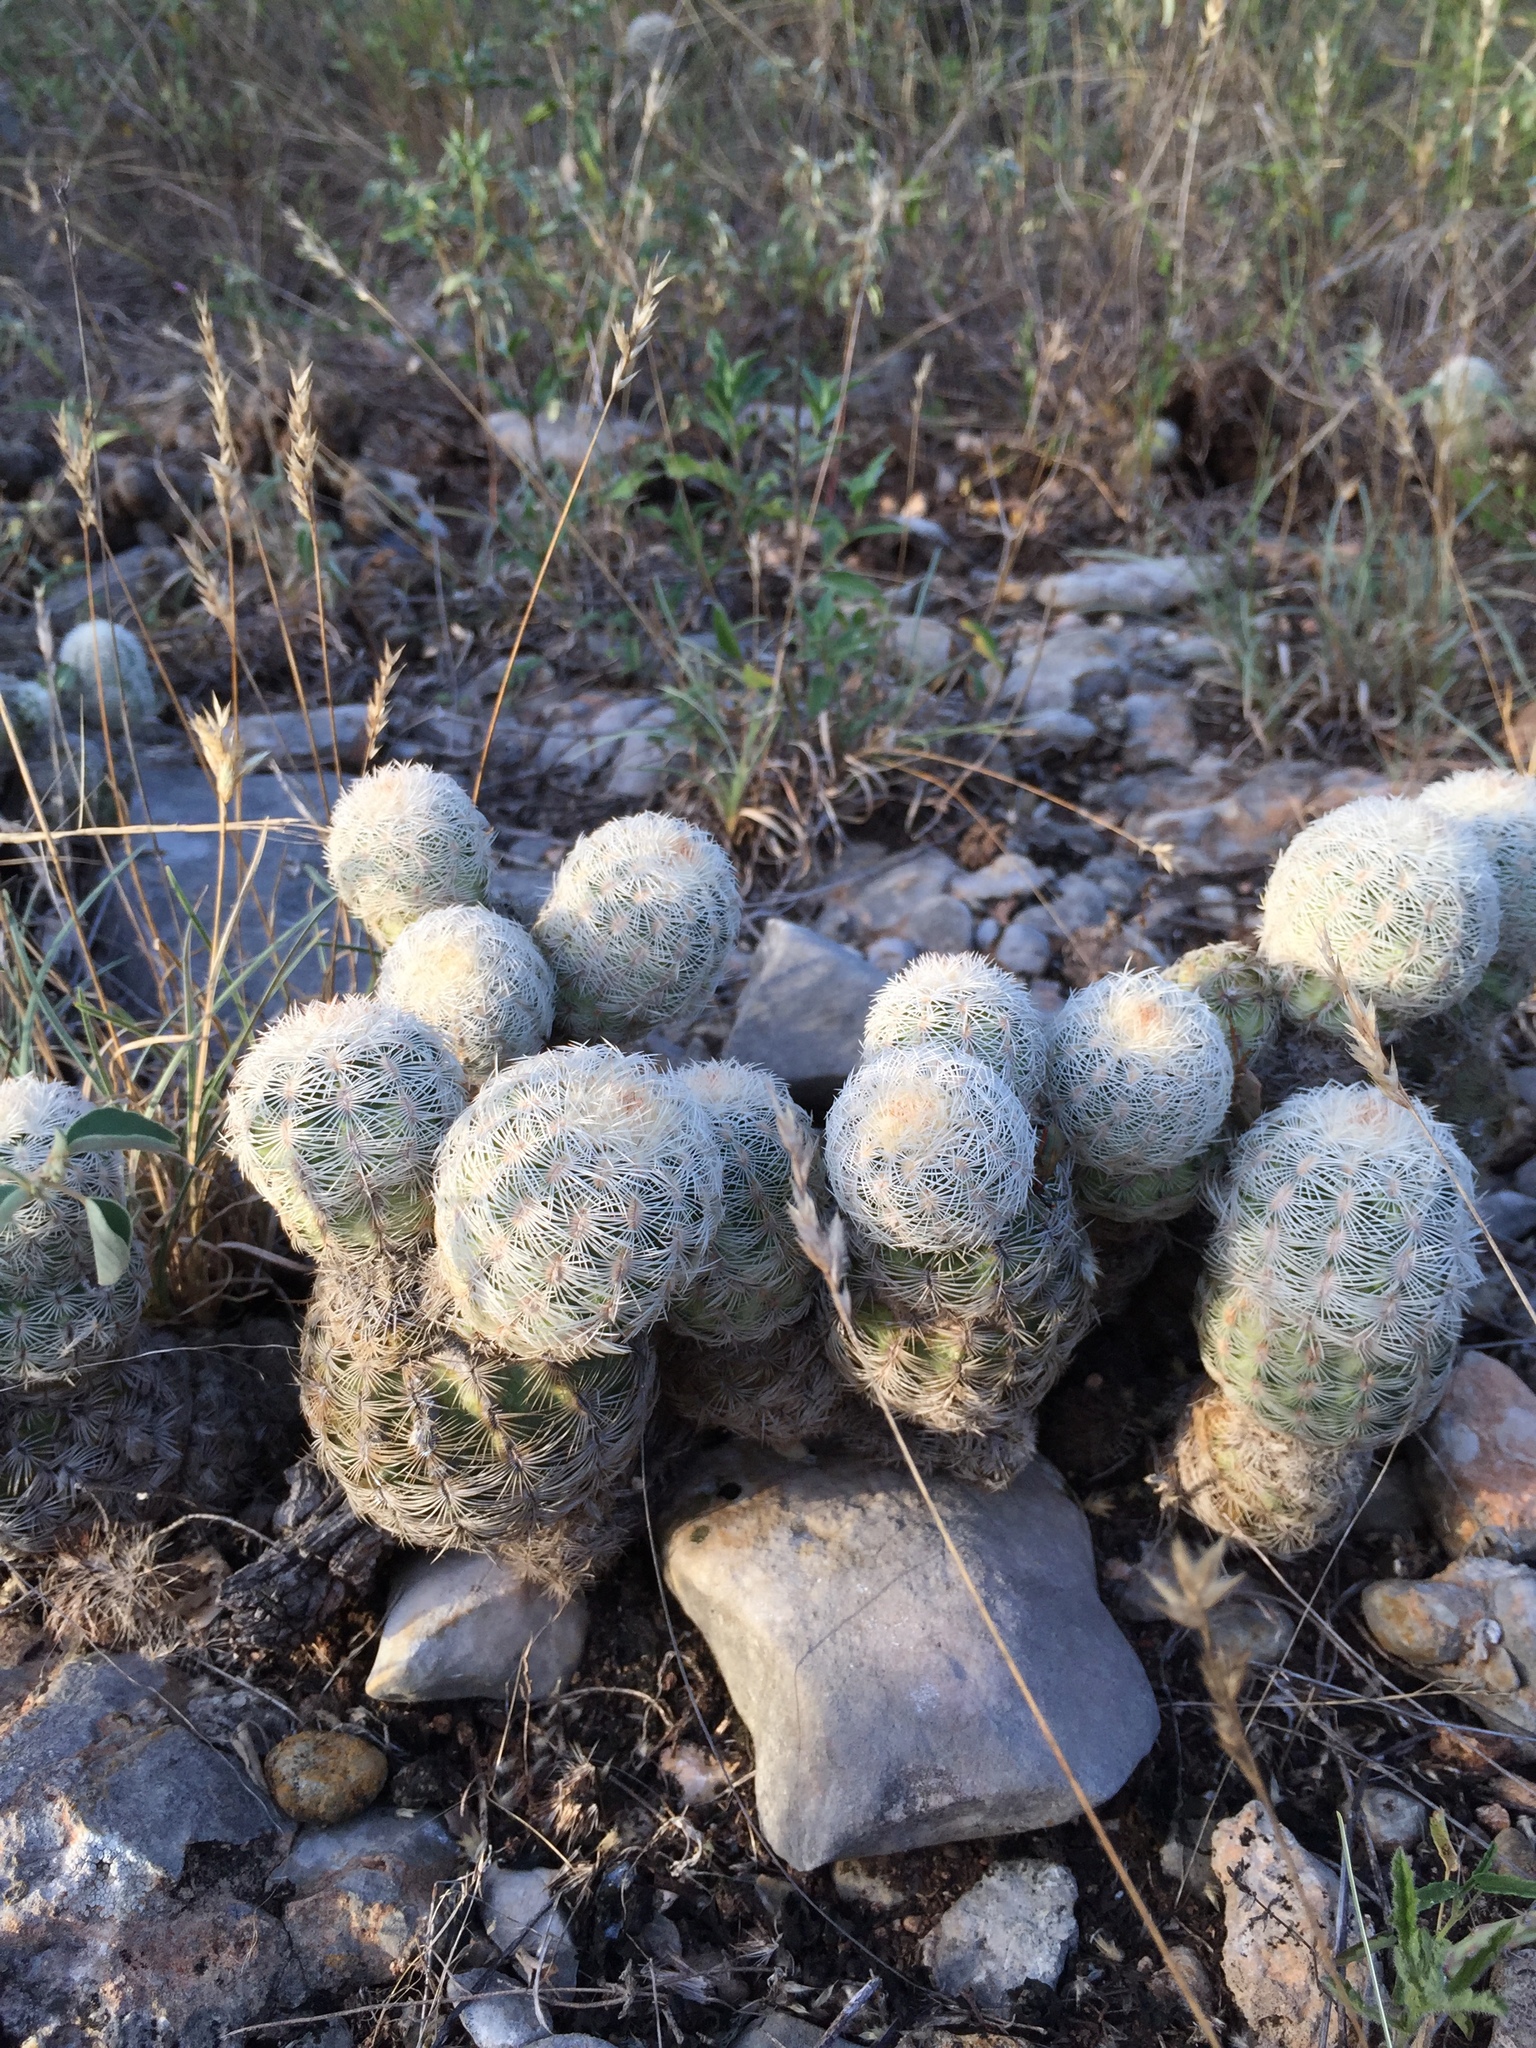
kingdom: Plantae
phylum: Tracheophyta
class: Magnoliopsida
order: Caryophyllales
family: Cactaceae
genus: Echinocereus
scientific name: Echinocereus reichenbachii
